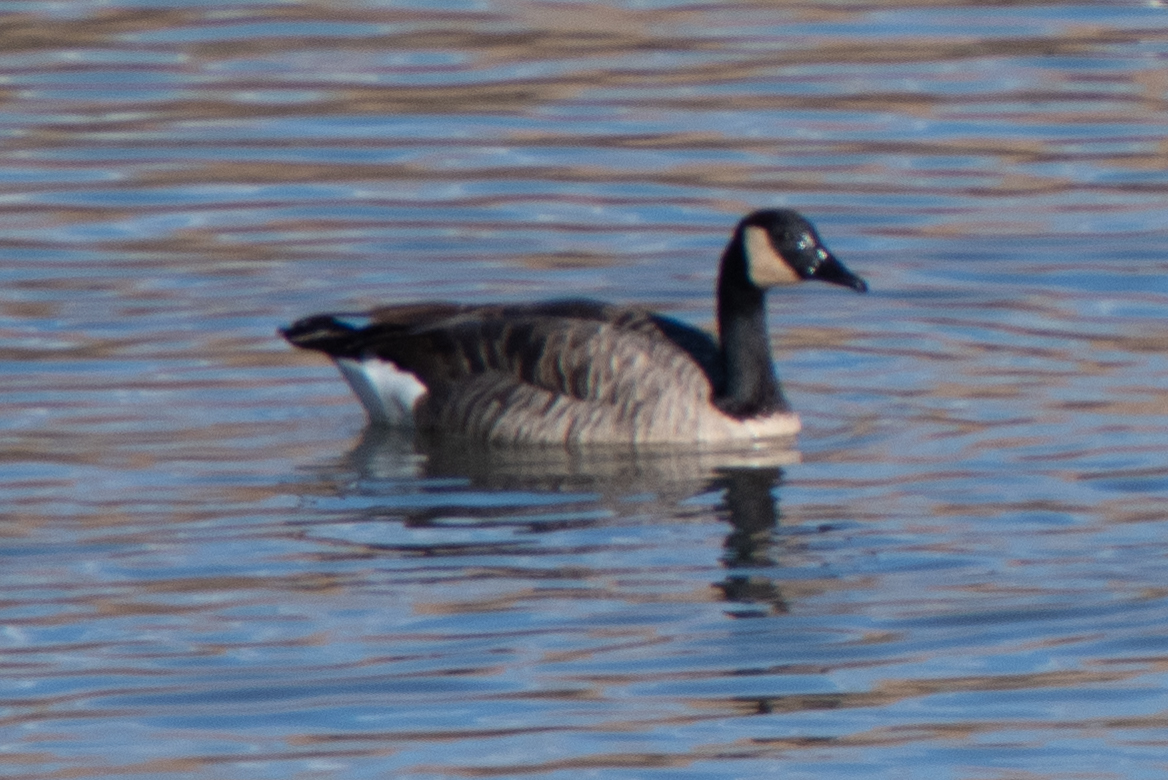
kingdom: Animalia
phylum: Chordata
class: Aves
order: Anseriformes
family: Anatidae
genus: Branta
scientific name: Branta canadensis
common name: Canada goose
